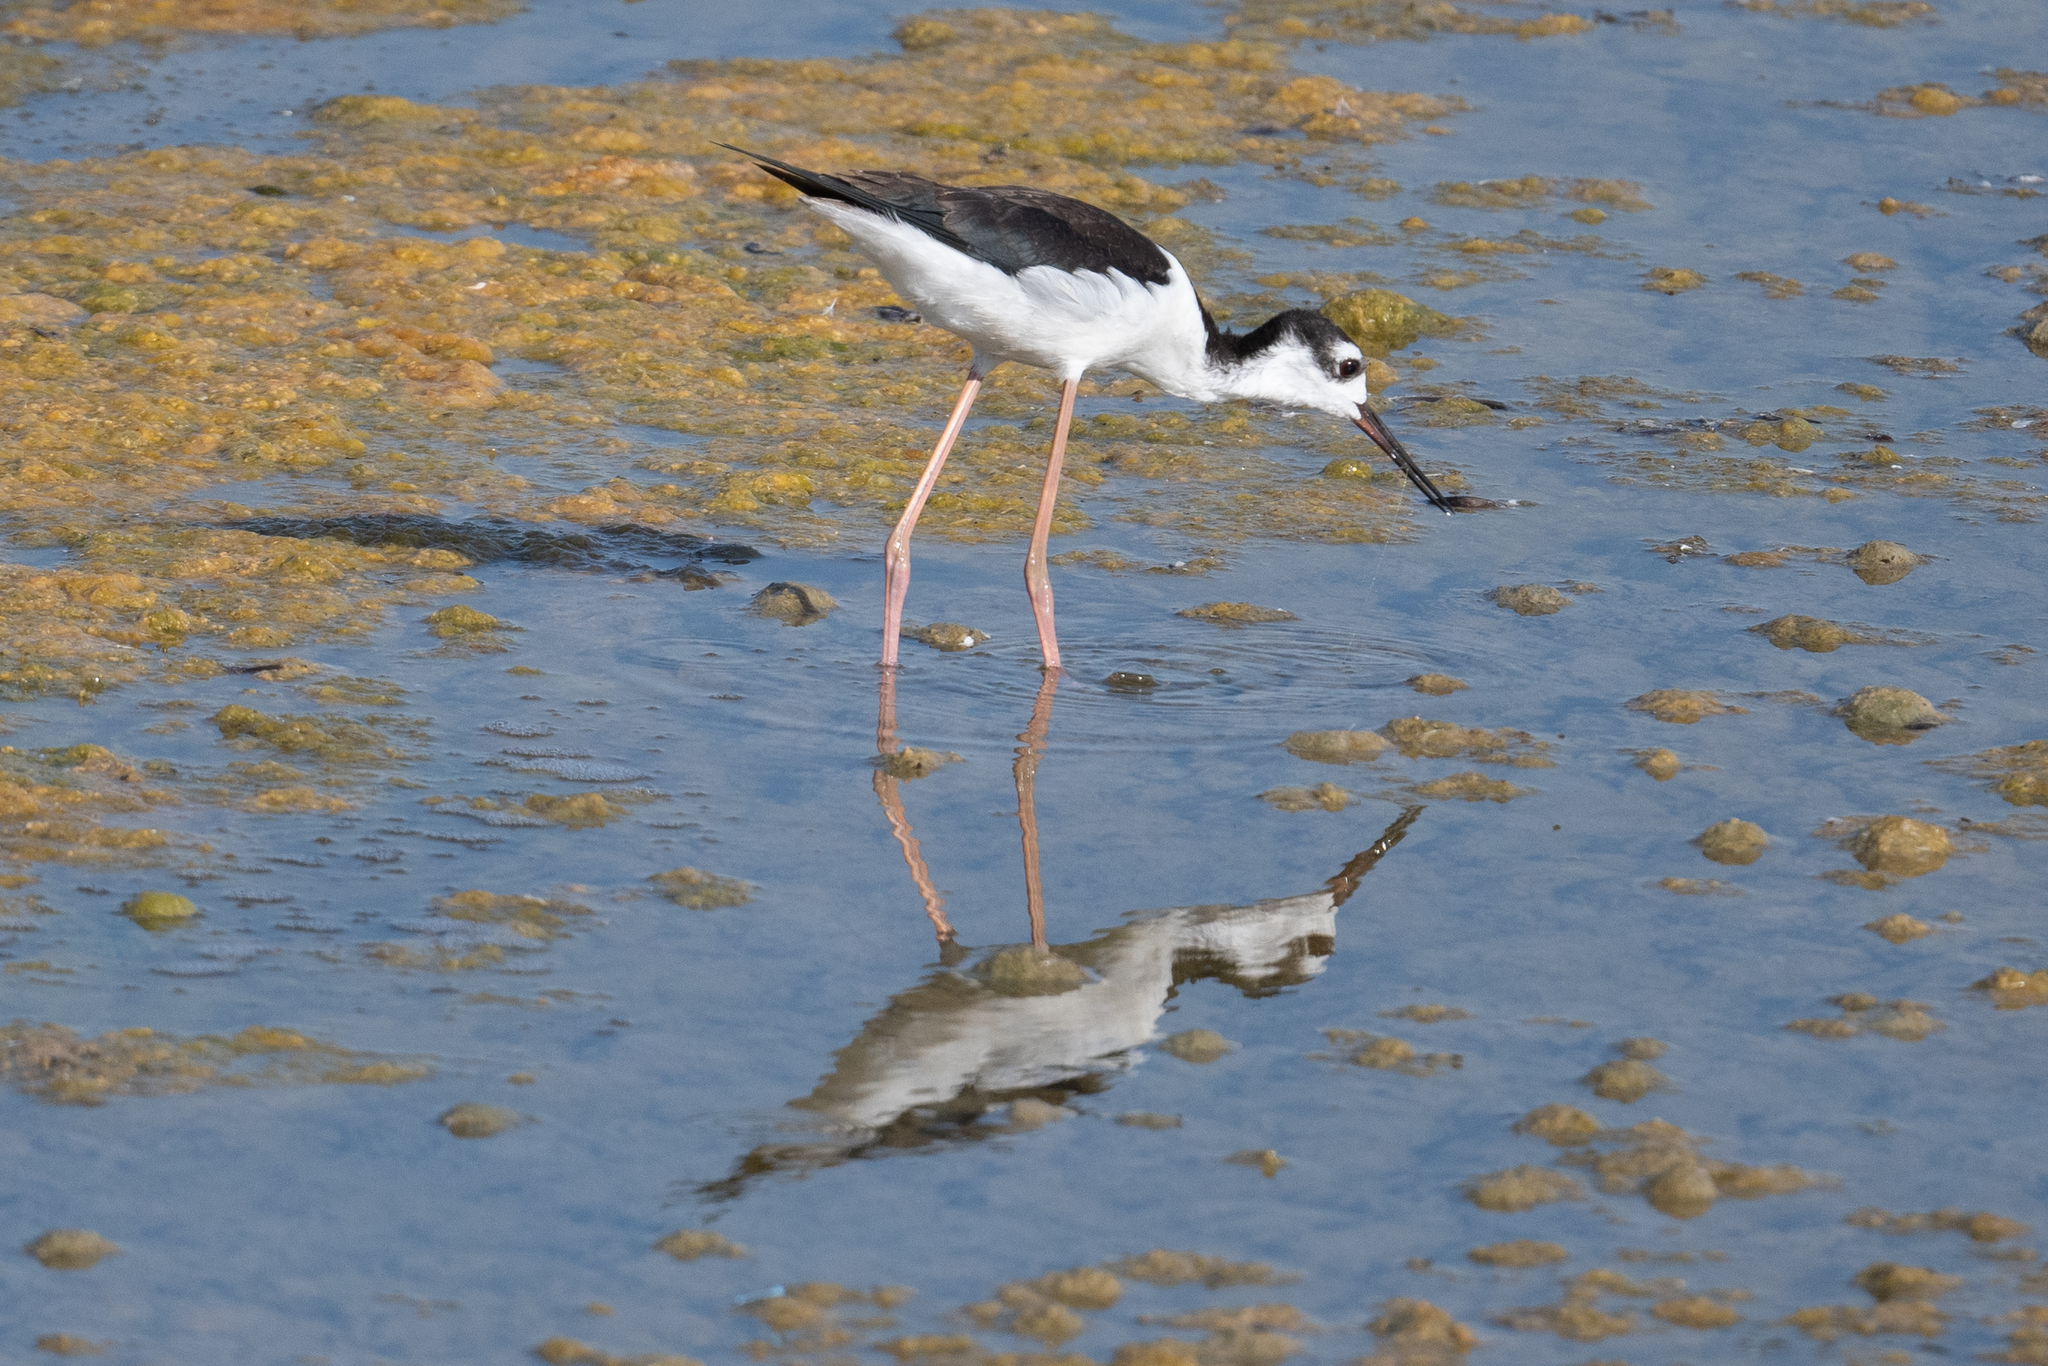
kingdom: Animalia
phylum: Chordata
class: Aves
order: Charadriiformes
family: Recurvirostridae
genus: Himantopus
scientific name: Himantopus mexicanus
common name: Black-necked stilt
